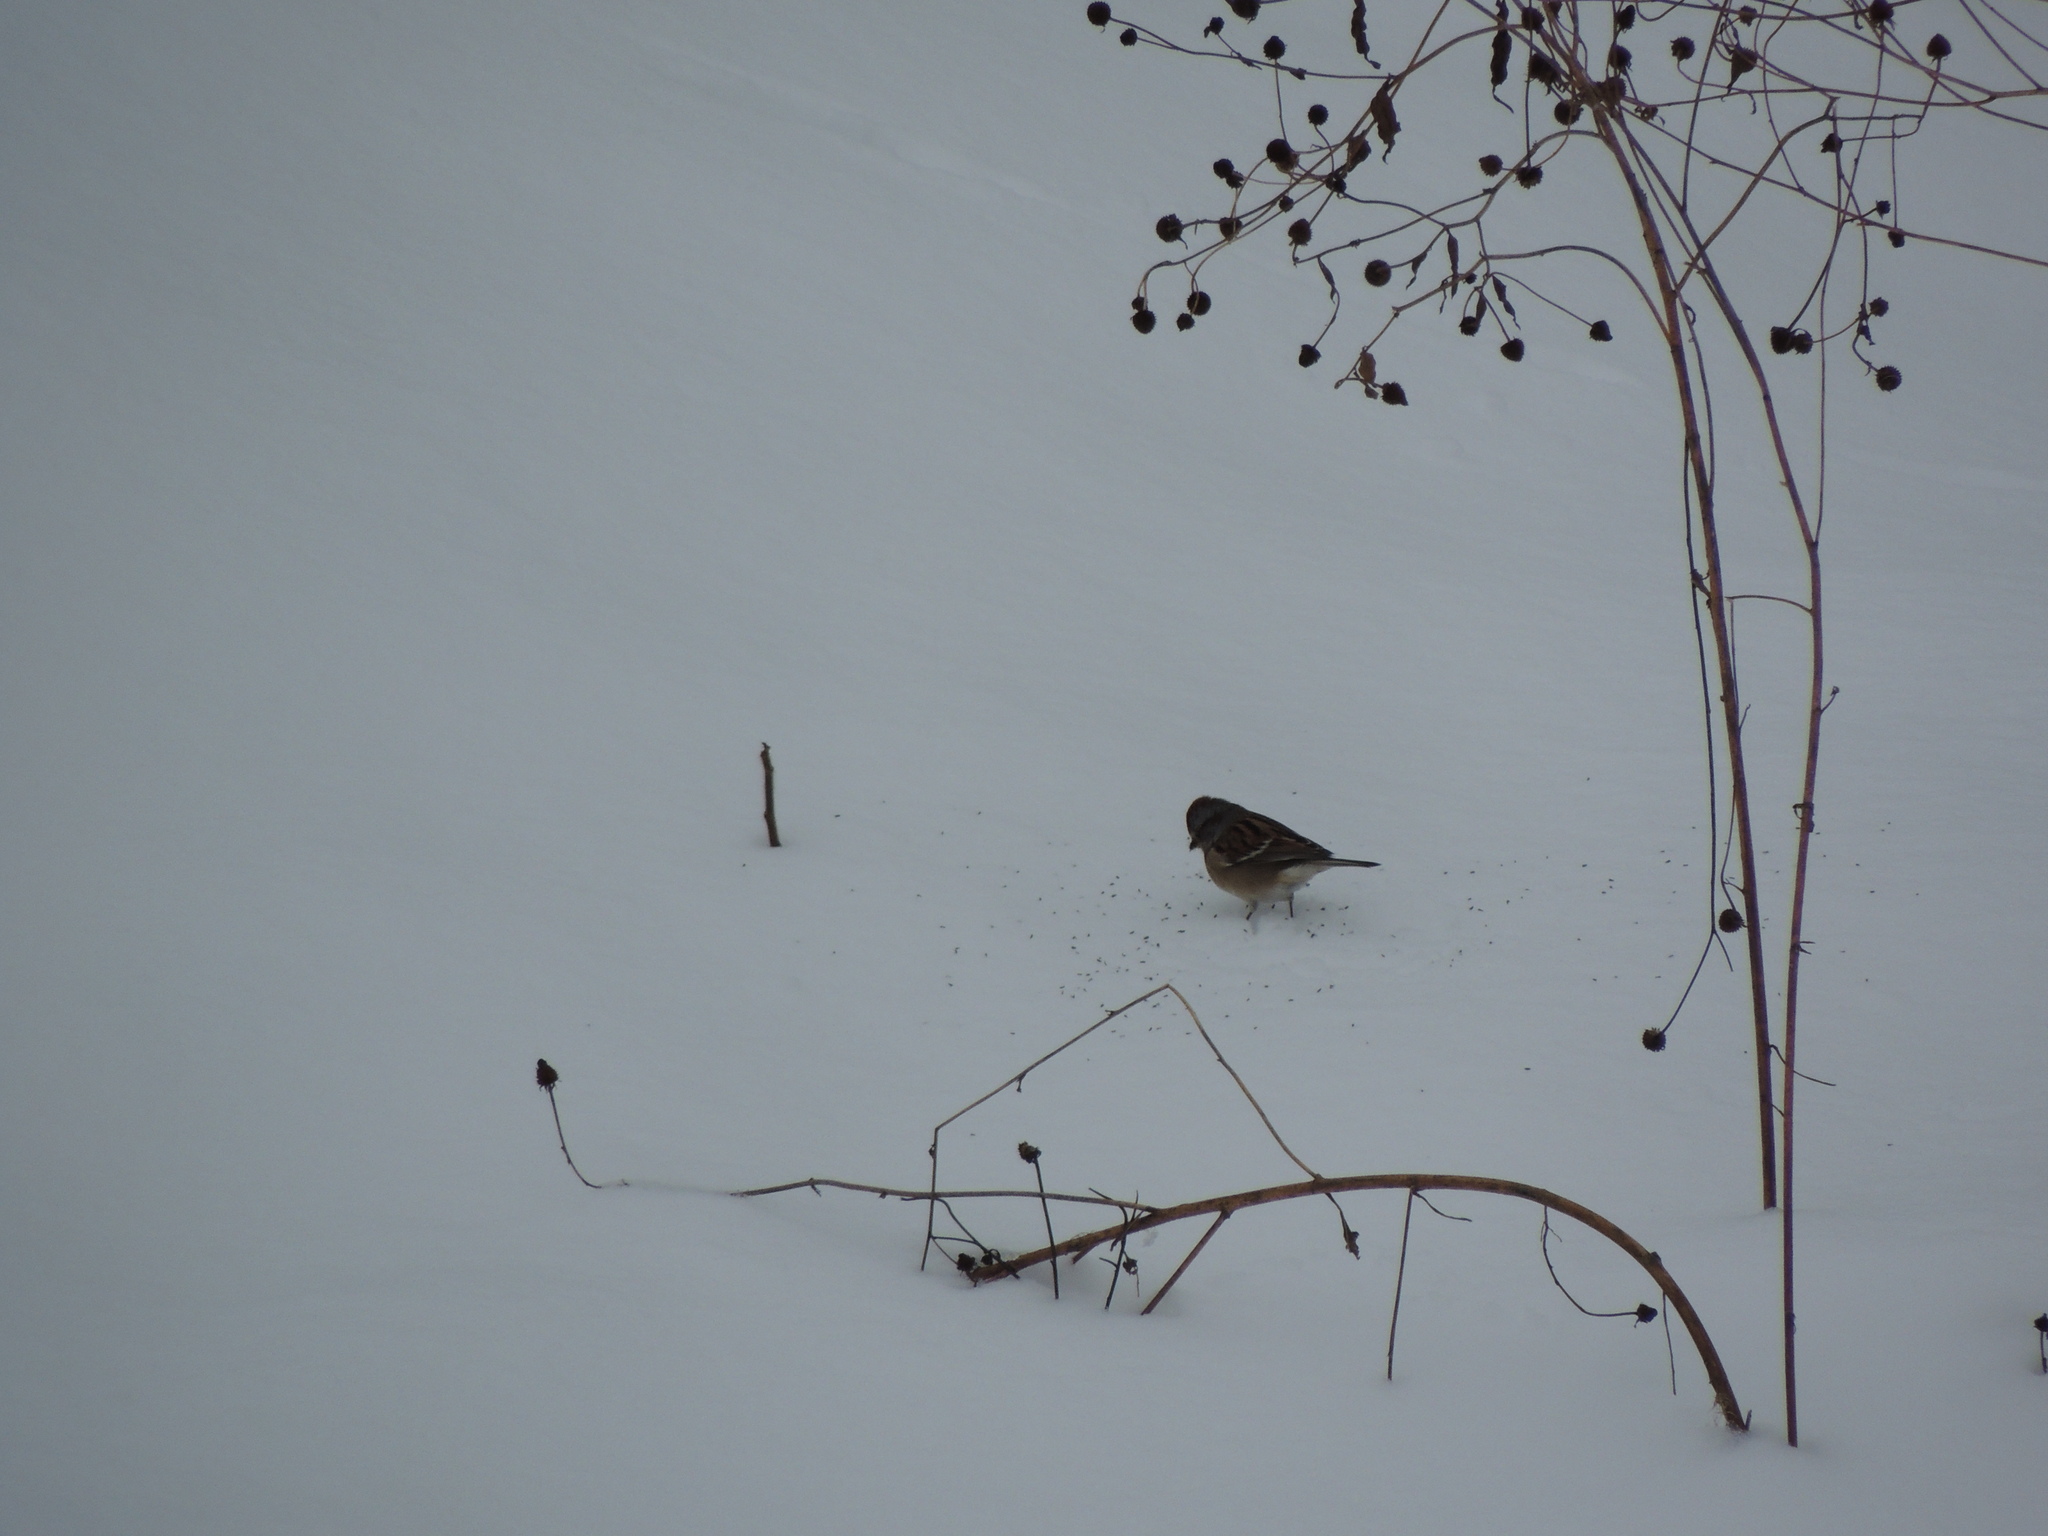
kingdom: Animalia
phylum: Chordata
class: Aves
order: Passeriformes
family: Passerellidae
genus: Spizelloides
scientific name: Spizelloides arborea
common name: American tree sparrow
